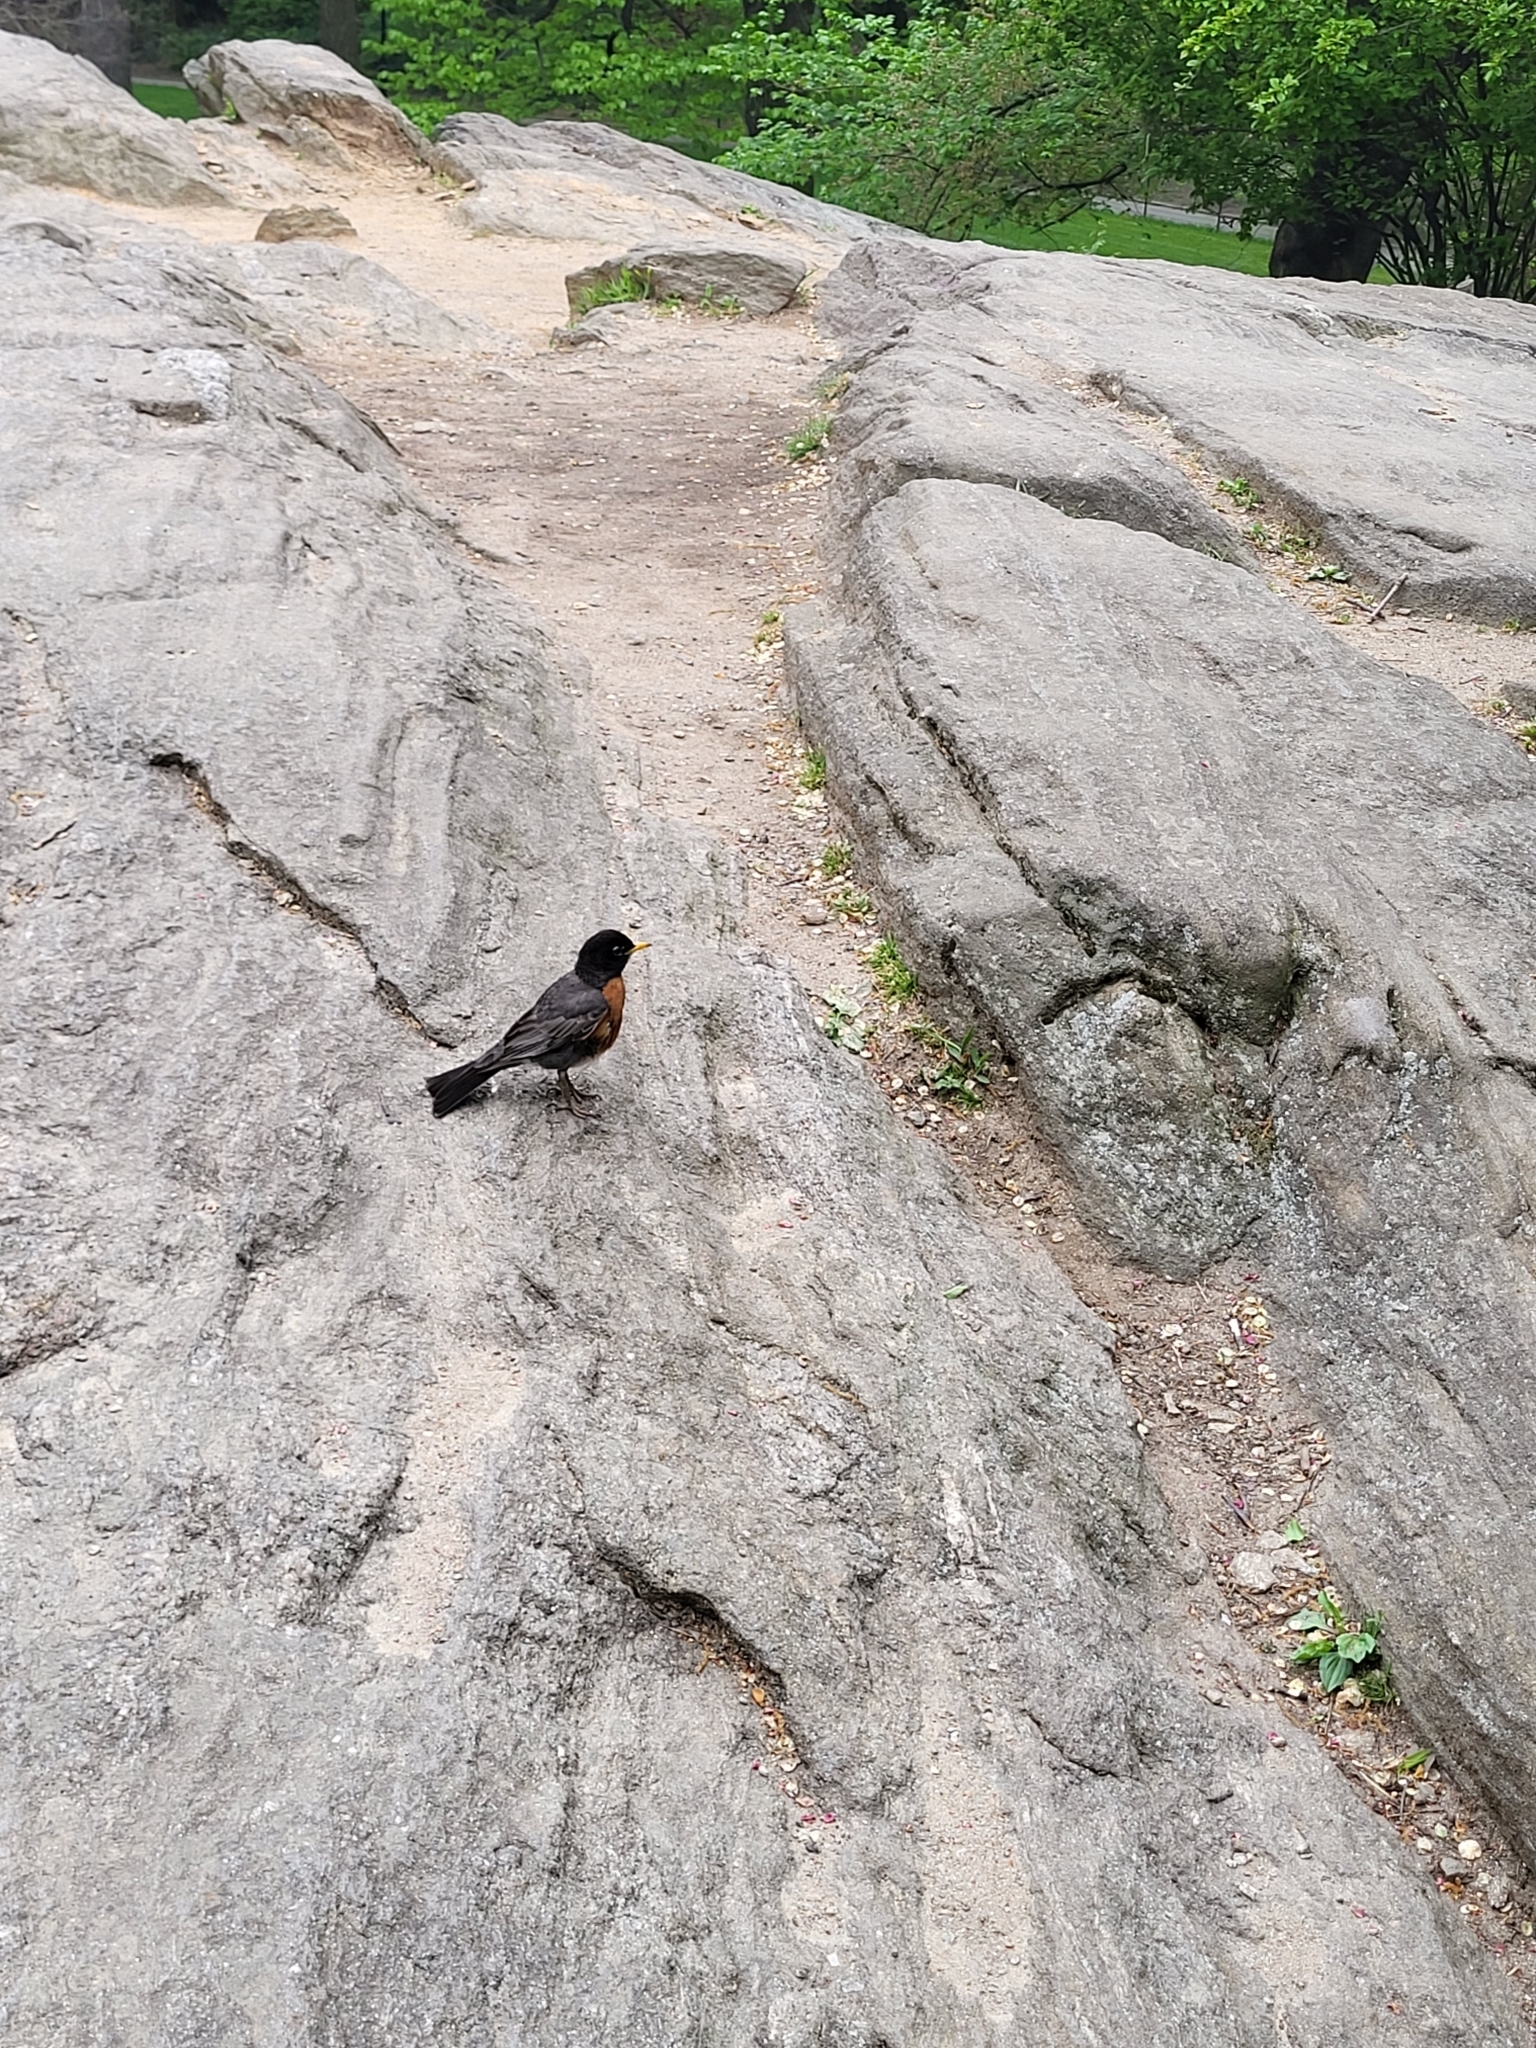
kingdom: Animalia
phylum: Chordata
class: Aves
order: Passeriformes
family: Turdidae
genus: Turdus
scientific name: Turdus migratorius
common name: American robin
